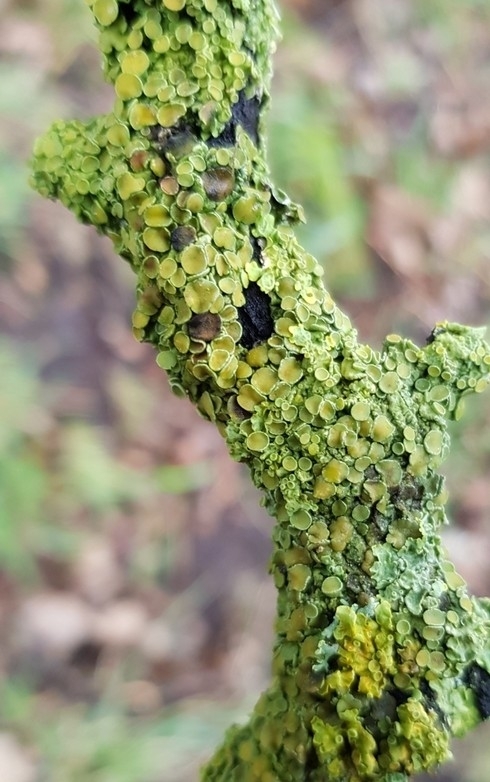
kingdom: Fungi
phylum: Ascomycota
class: Lecanoromycetes
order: Teloschistales
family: Teloschistaceae
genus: Xanthoria
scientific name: Xanthoria parietina
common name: Common orange lichen
